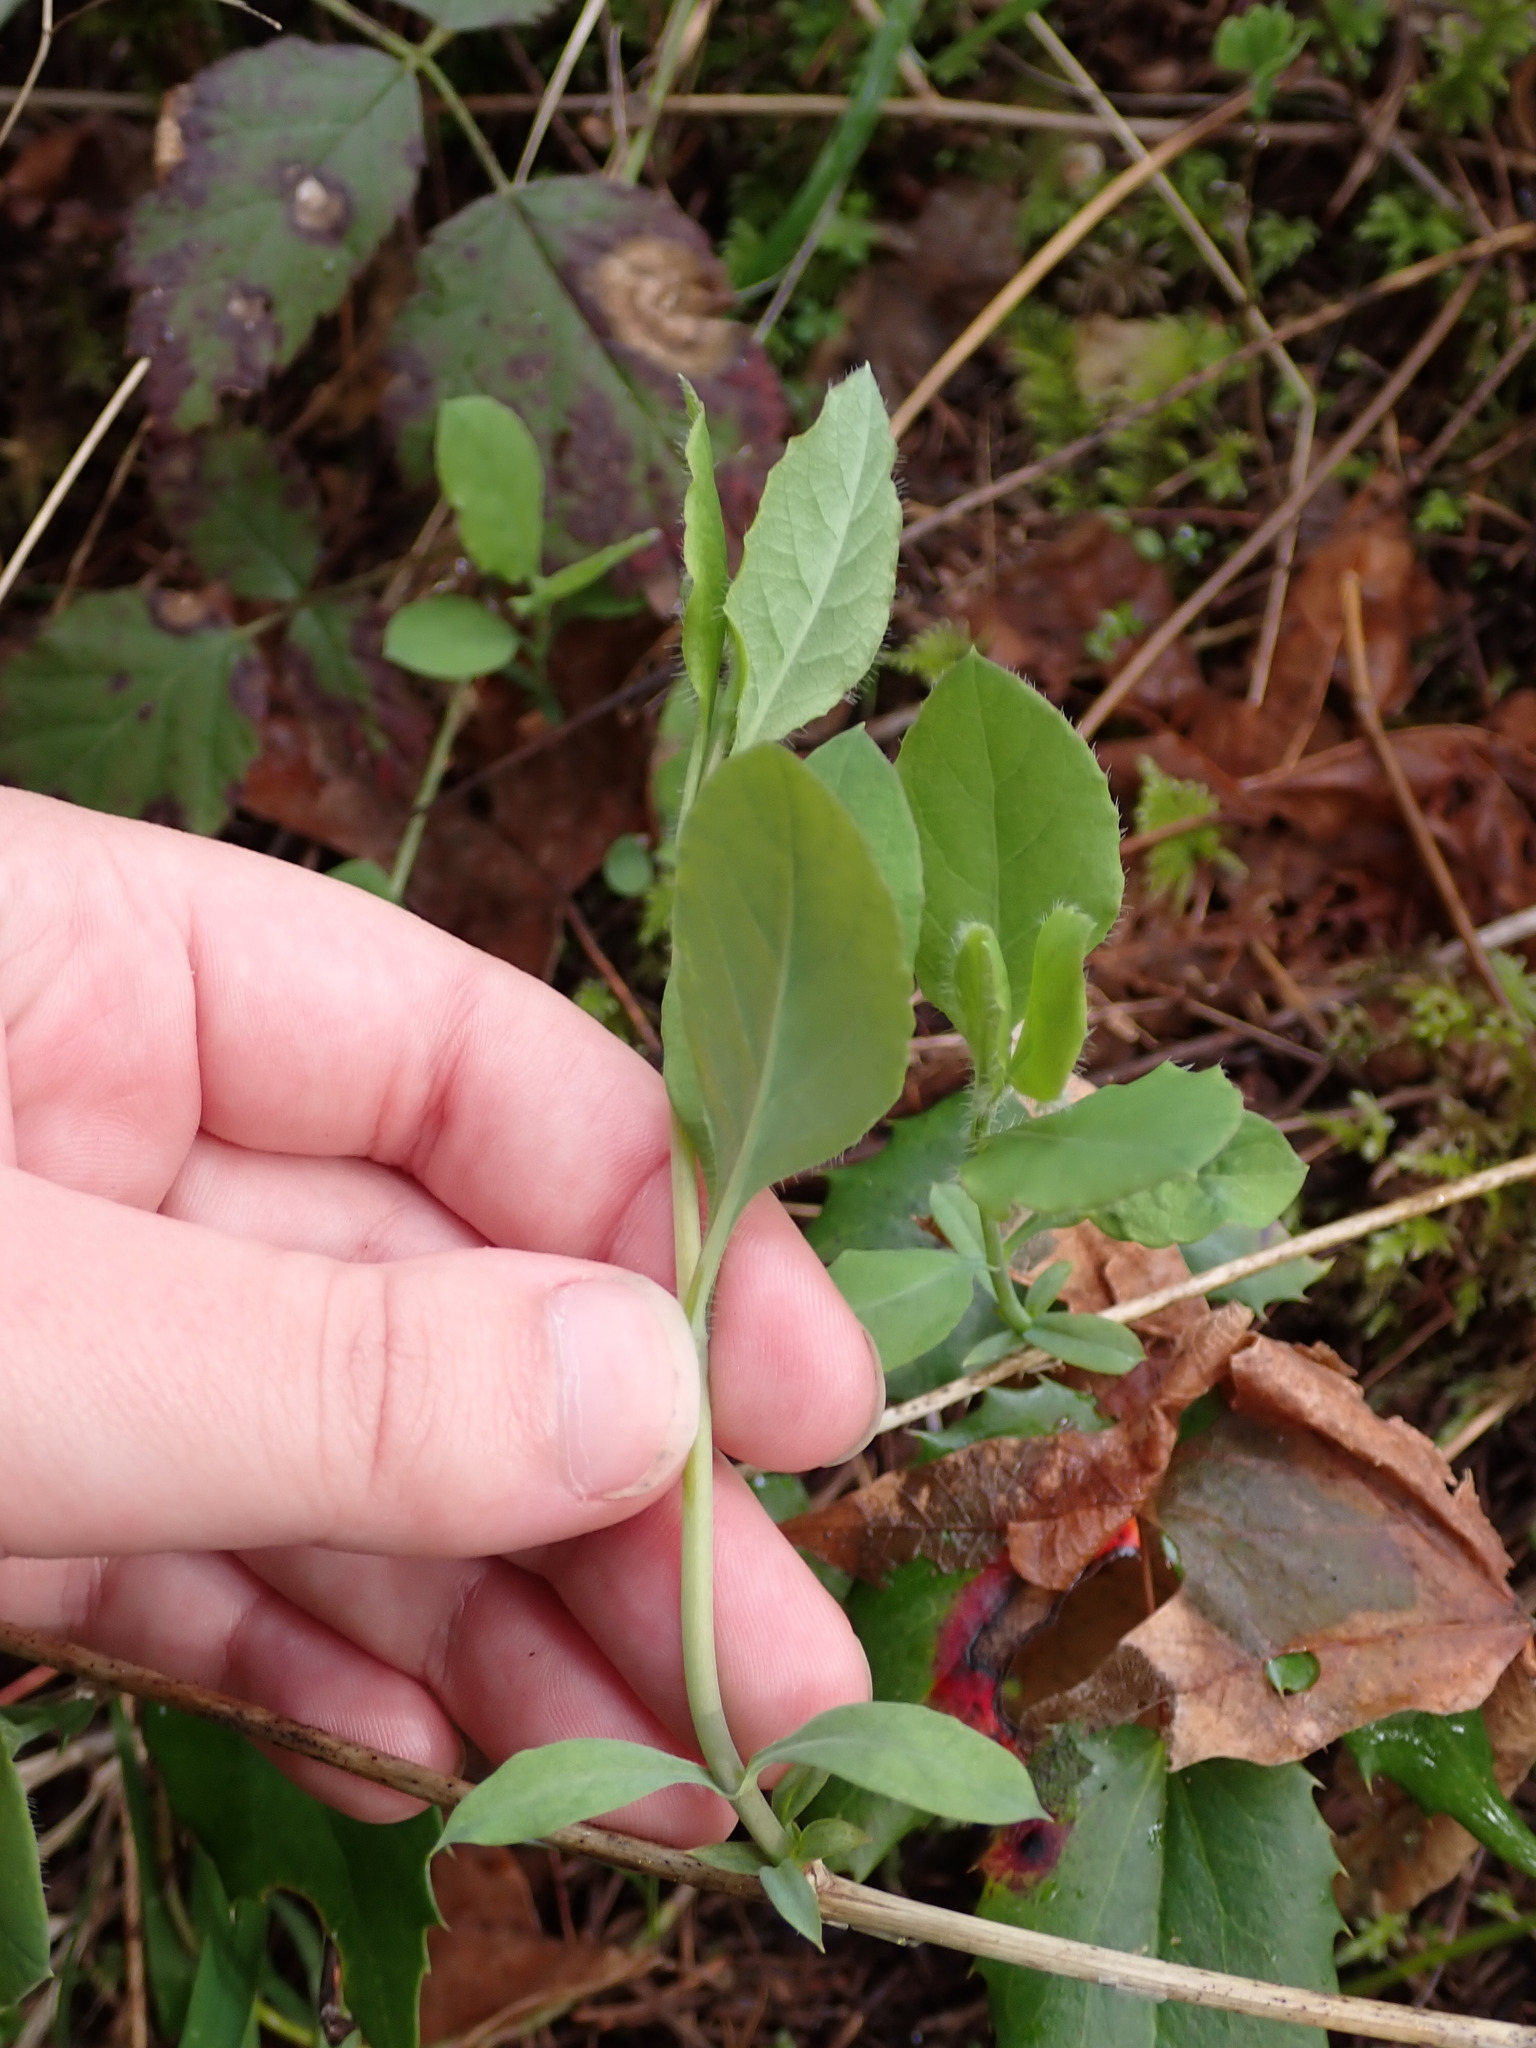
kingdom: Plantae
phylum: Tracheophyta
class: Magnoliopsida
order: Dipsacales
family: Caprifoliaceae
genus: Lonicera
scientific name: Lonicera ciliosa
